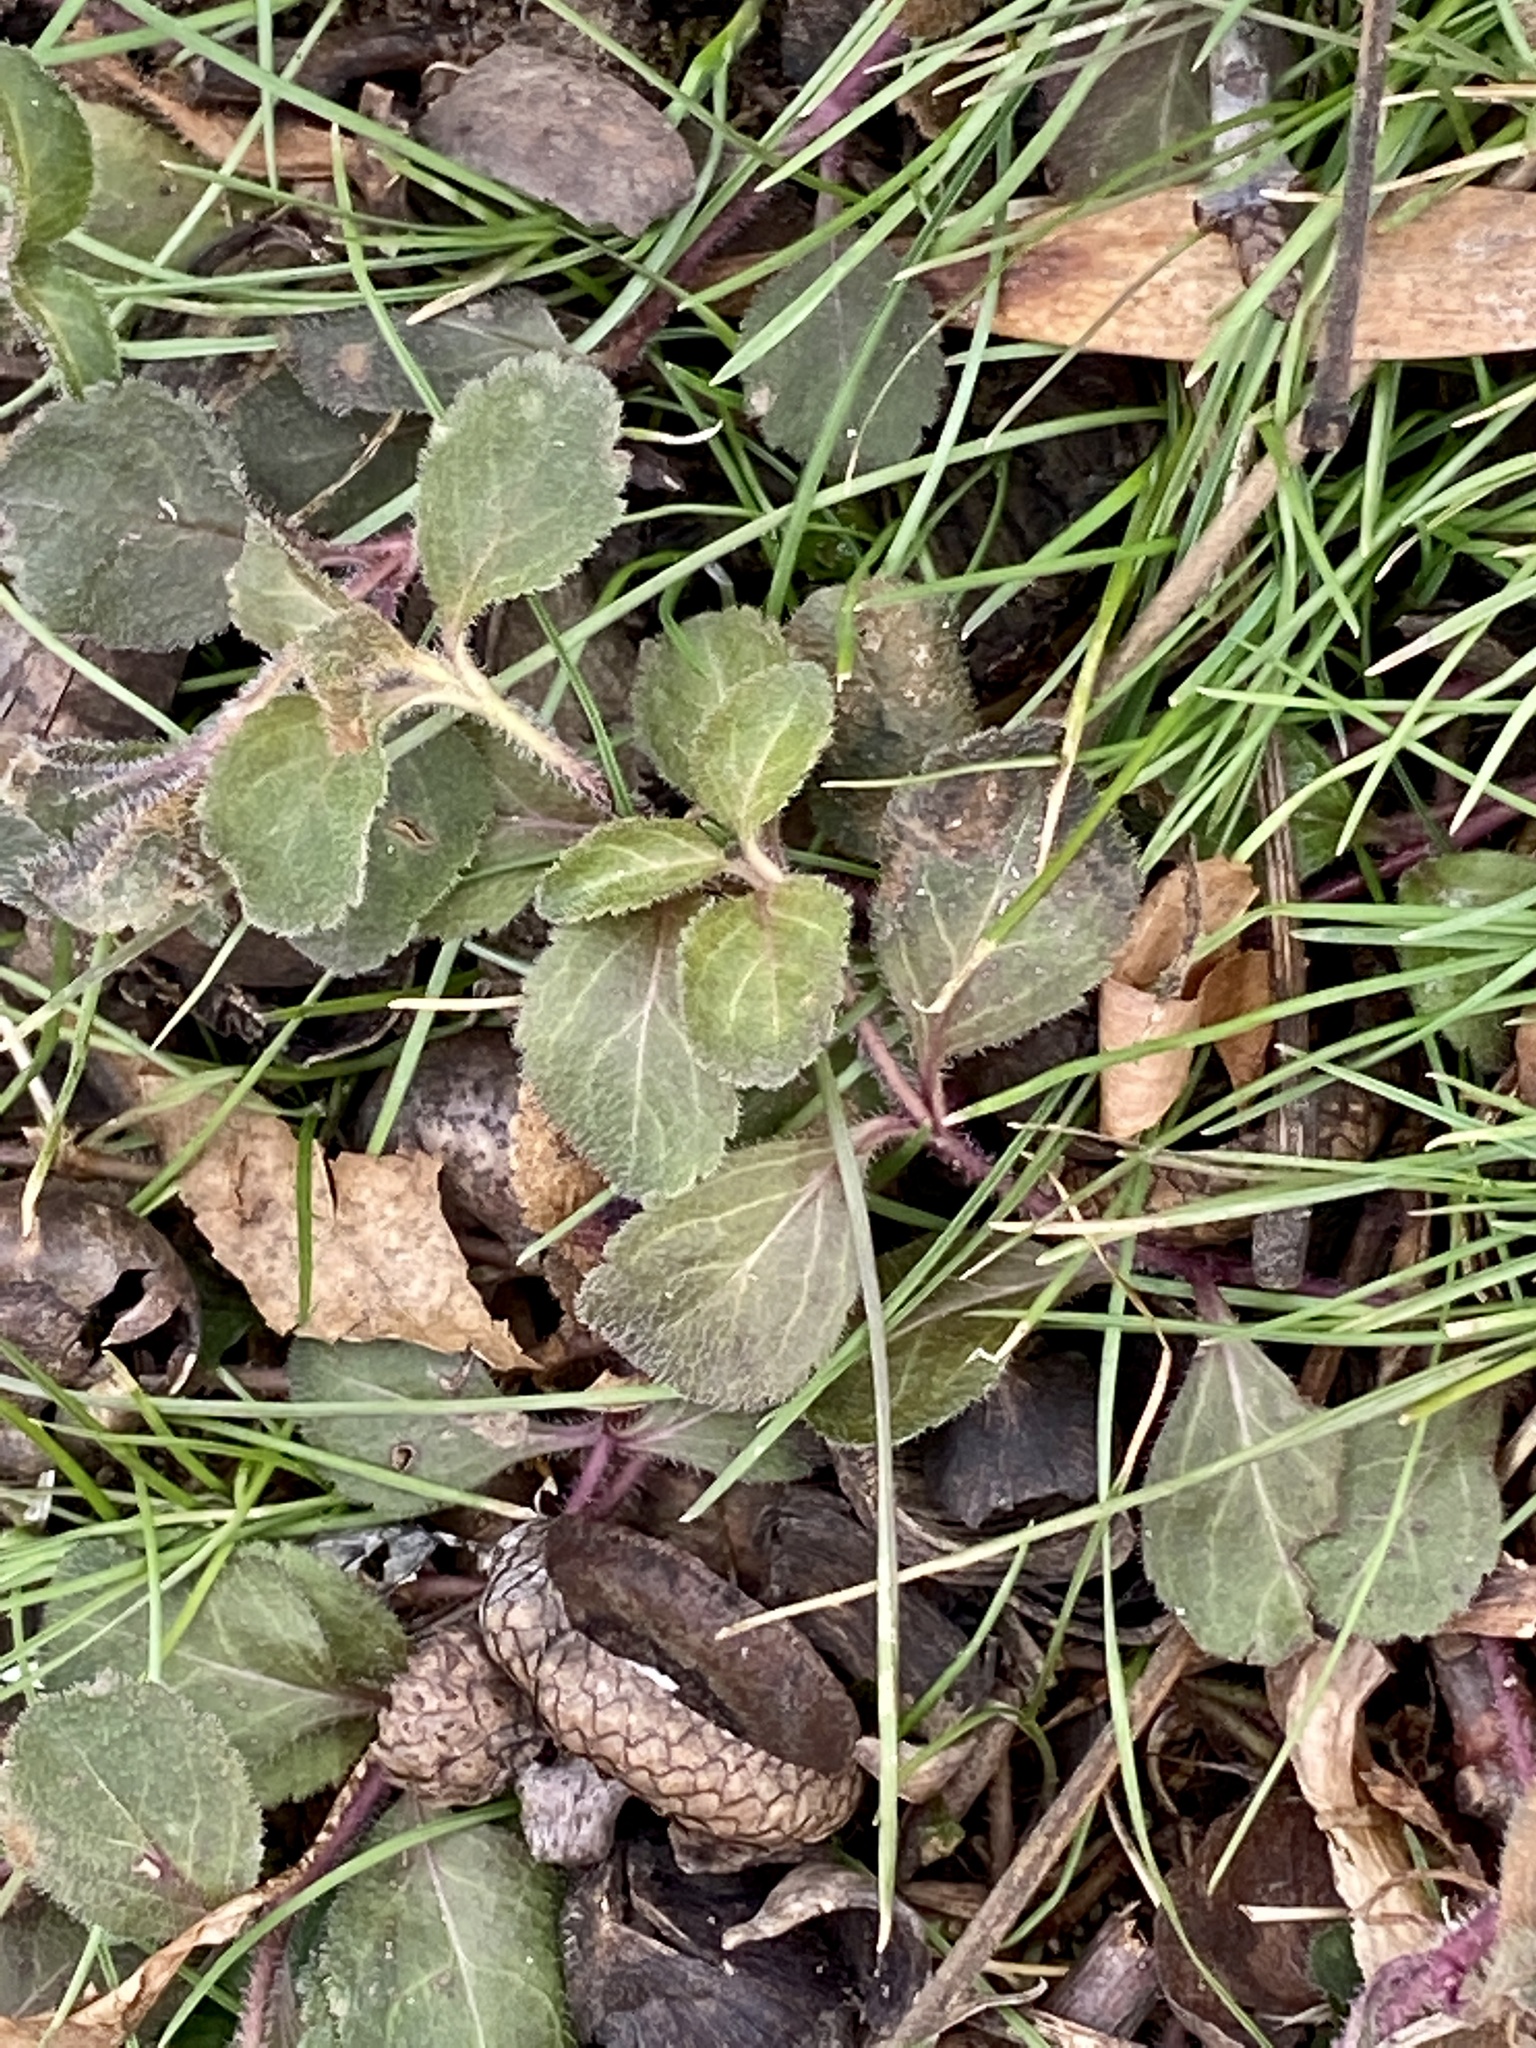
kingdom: Plantae
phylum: Tracheophyta
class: Magnoliopsida
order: Lamiales
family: Plantaginaceae
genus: Veronica
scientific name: Veronica officinalis
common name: Common speedwell
